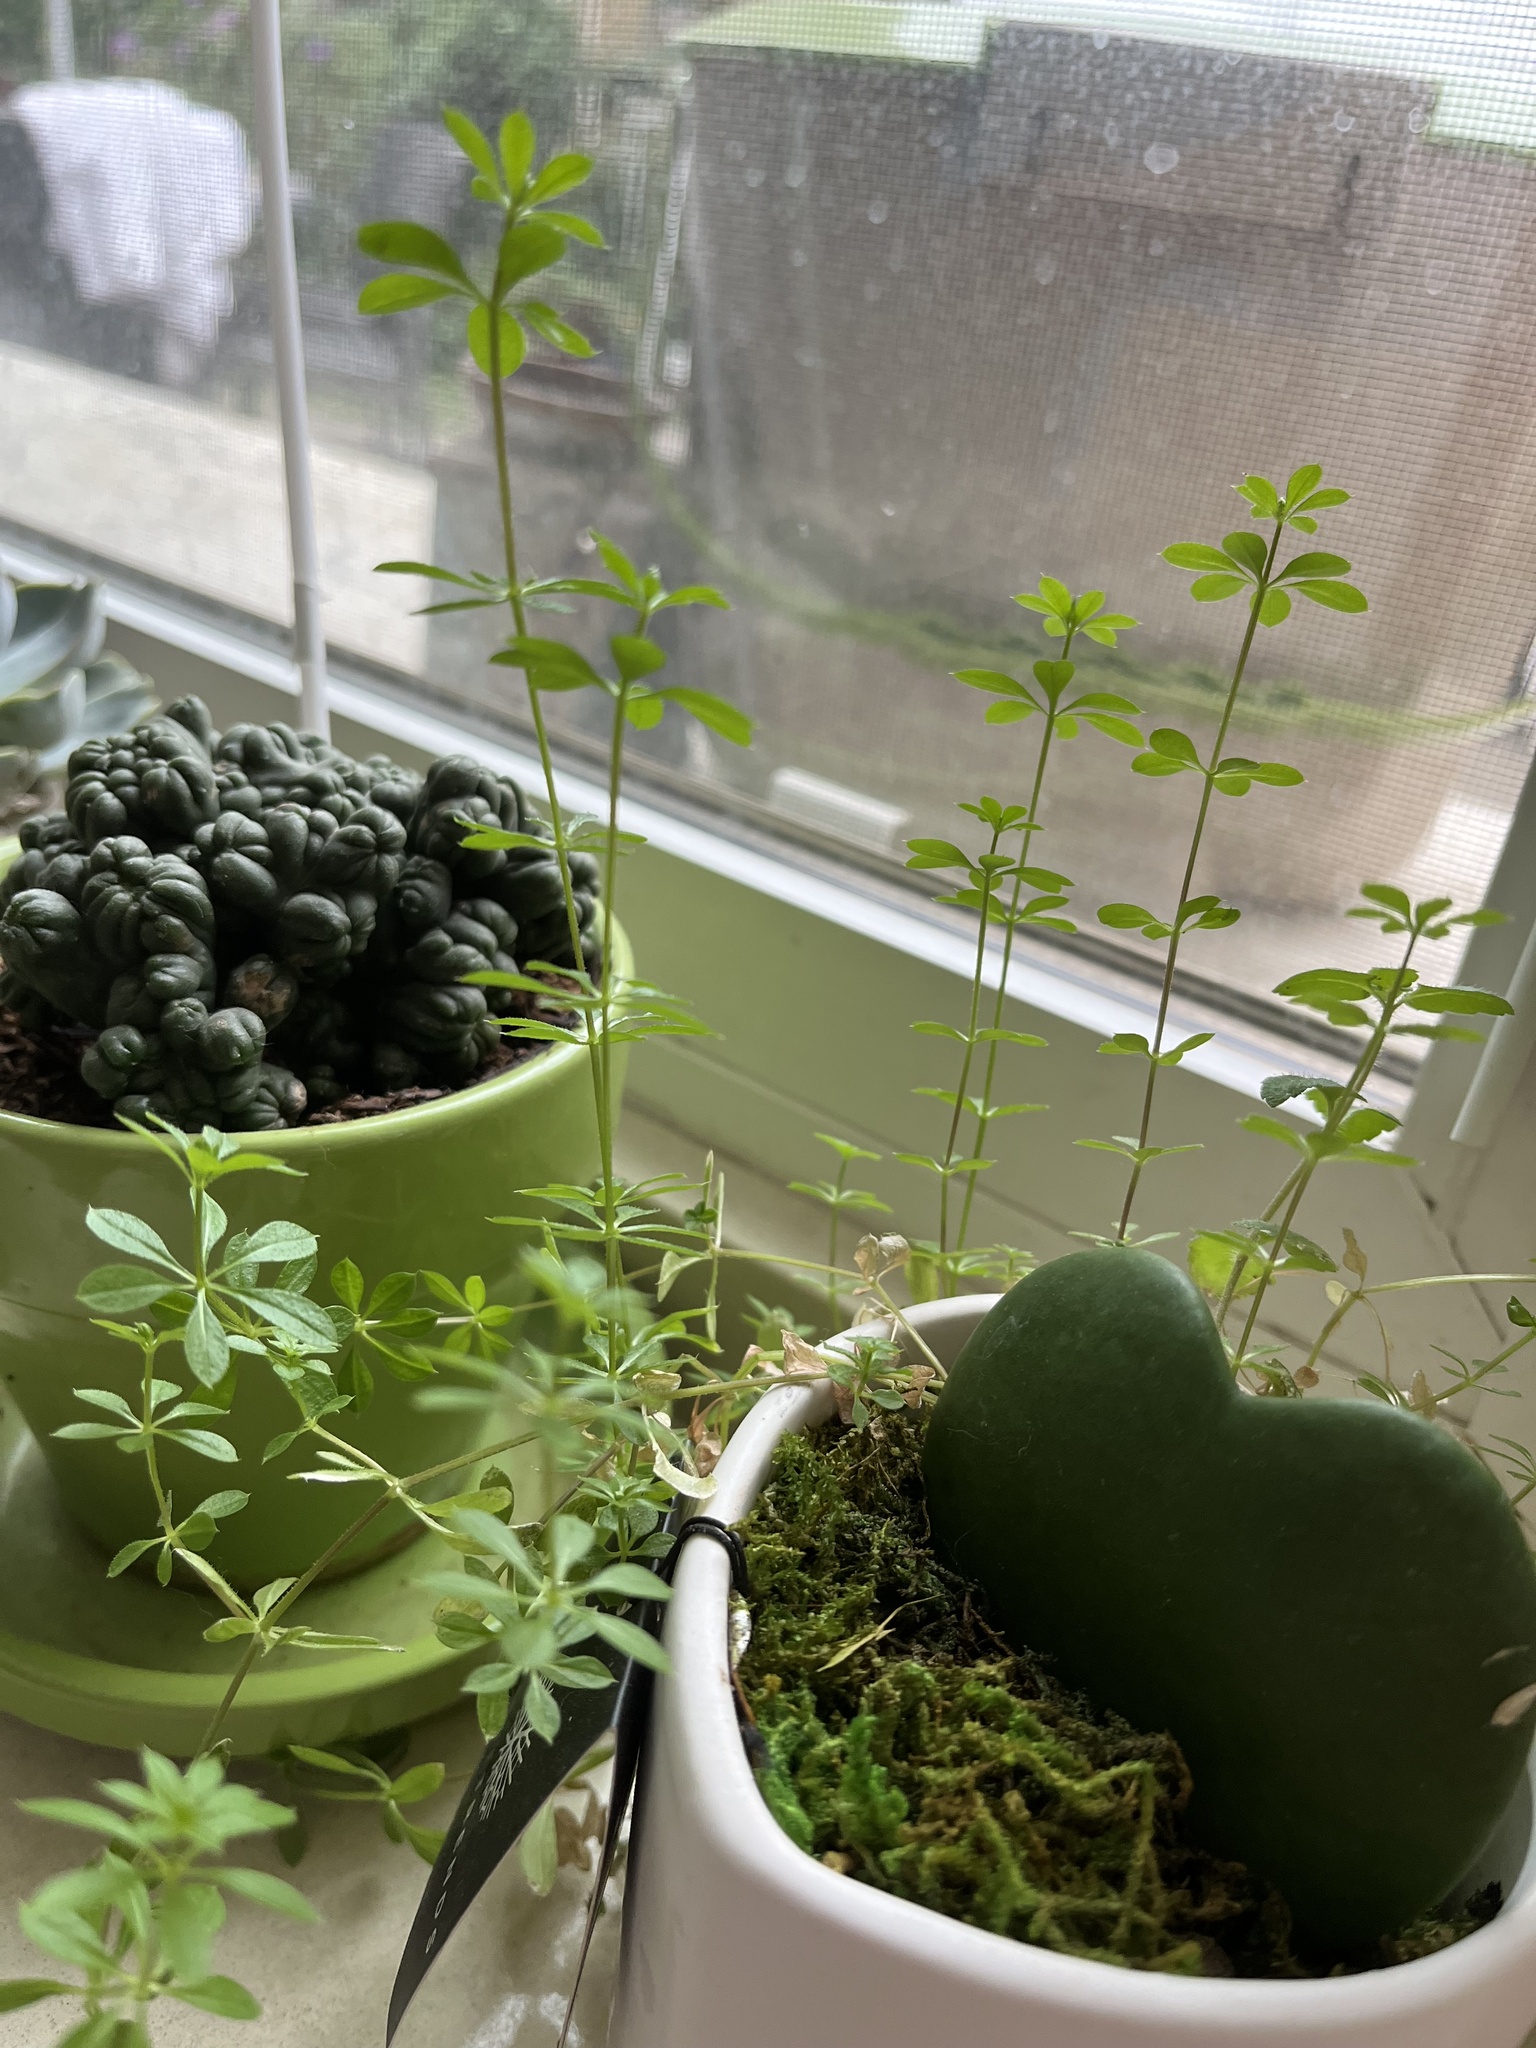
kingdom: Plantae
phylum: Tracheophyta
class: Magnoliopsida
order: Gentianales
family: Rubiaceae
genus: Galium
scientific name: Galium aparine
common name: Cleavers
